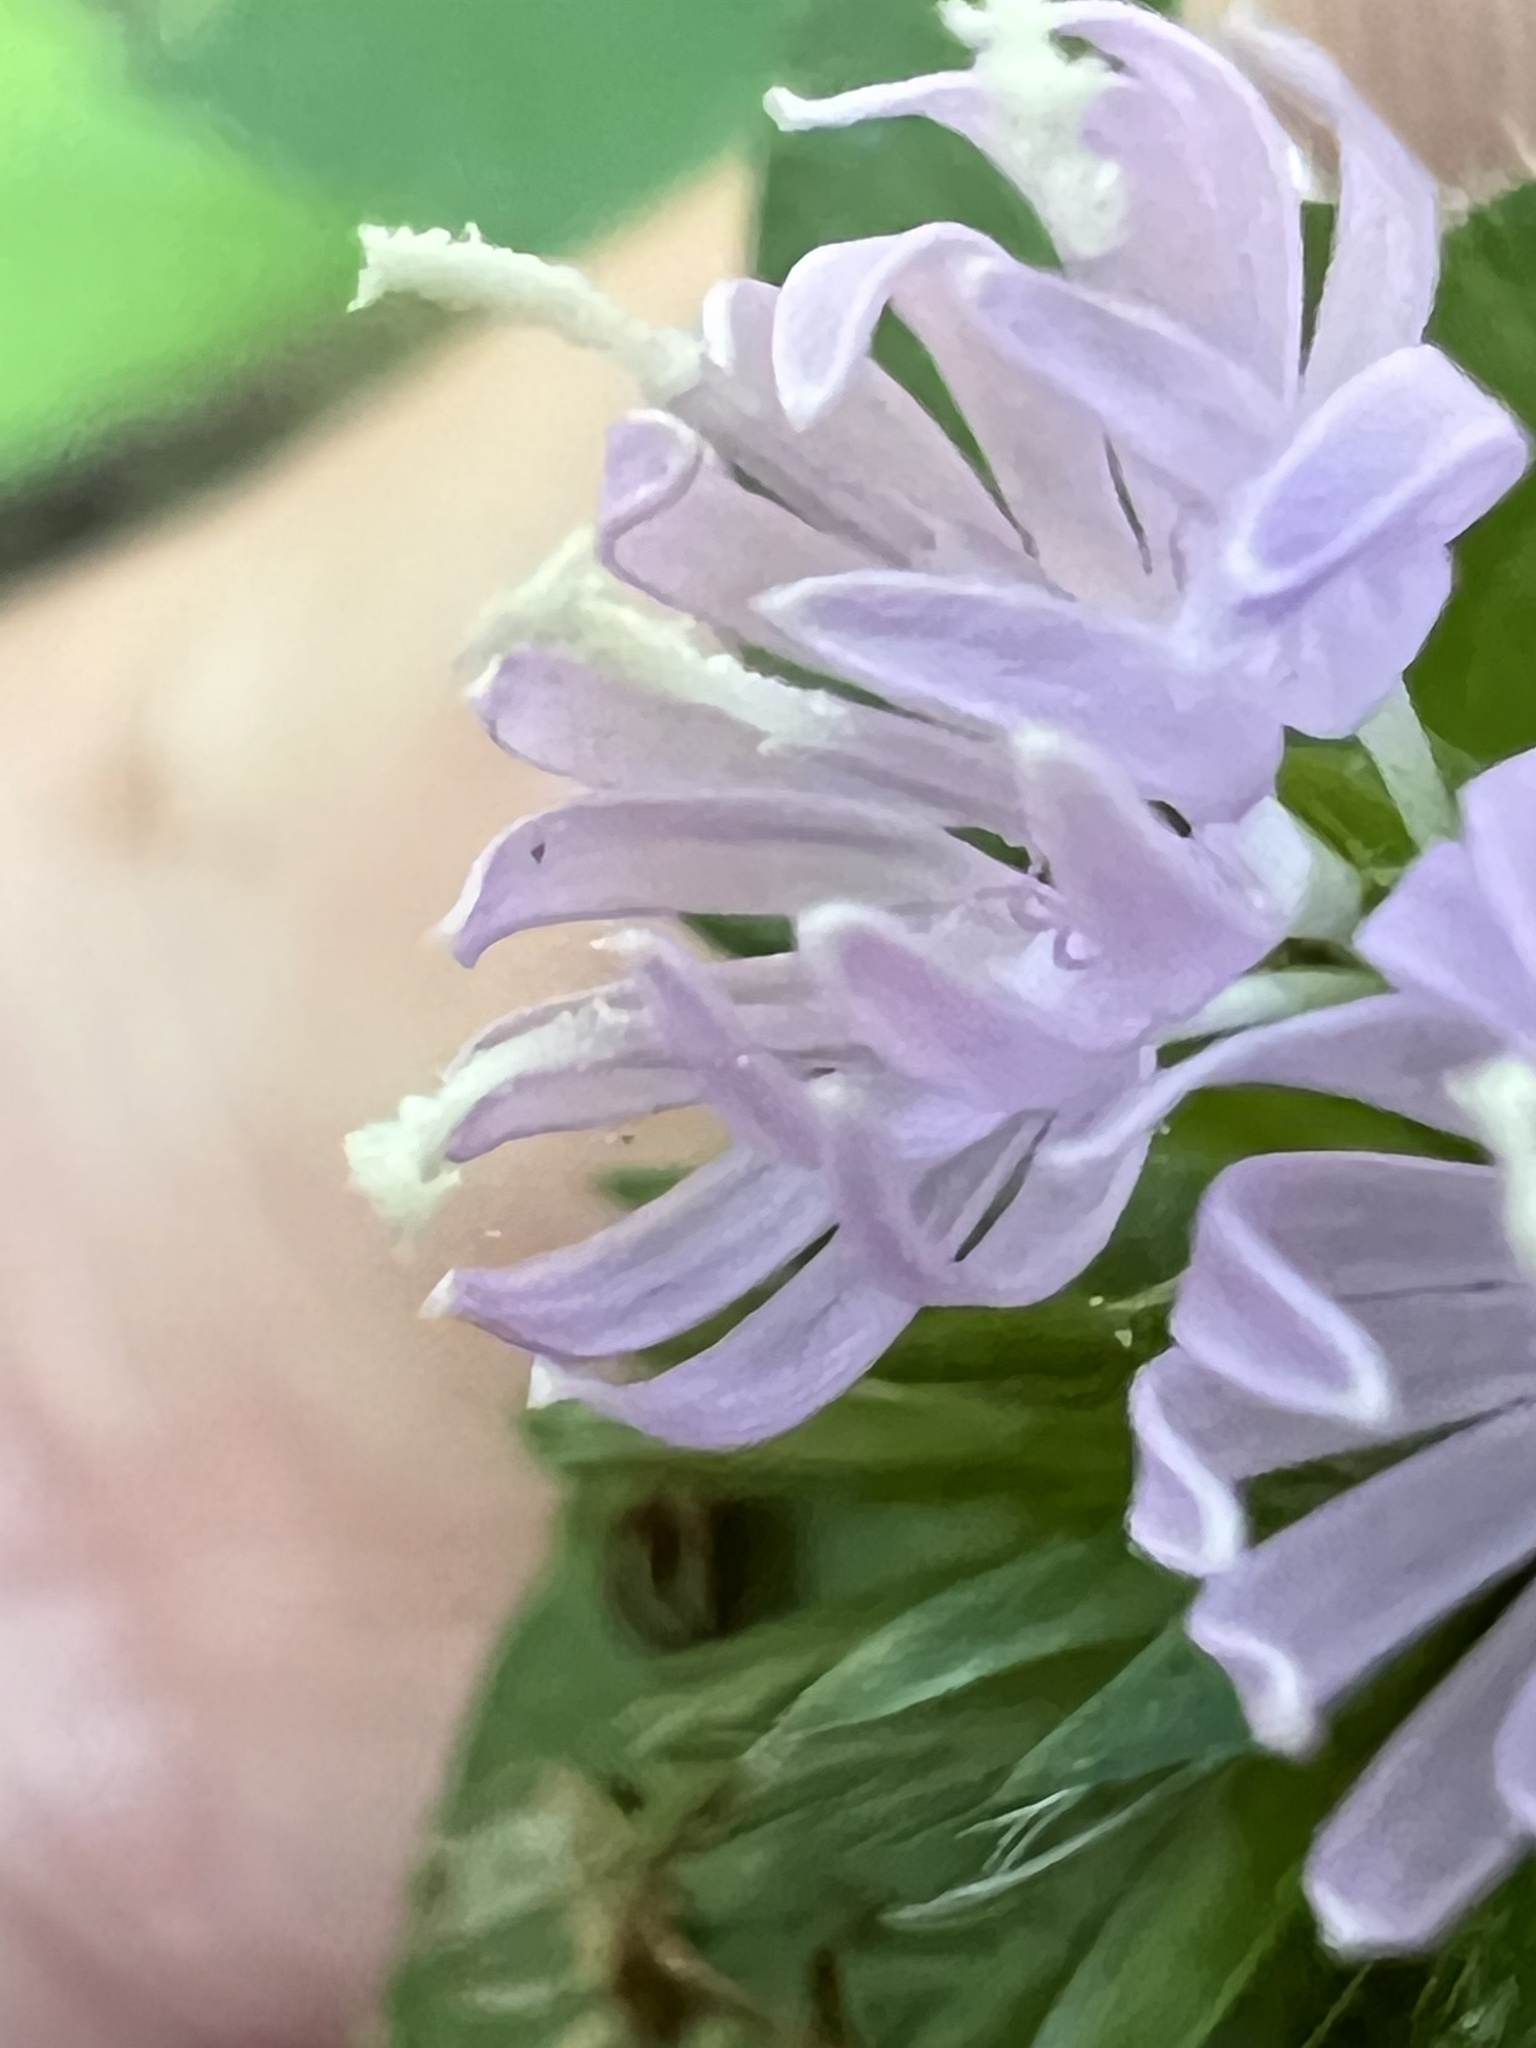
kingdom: Plantae
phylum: Tracheophyta
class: Magnoliopsida
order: Asterales
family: Asteraceae
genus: Elephantopus
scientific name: Elephantopus carolinianus
